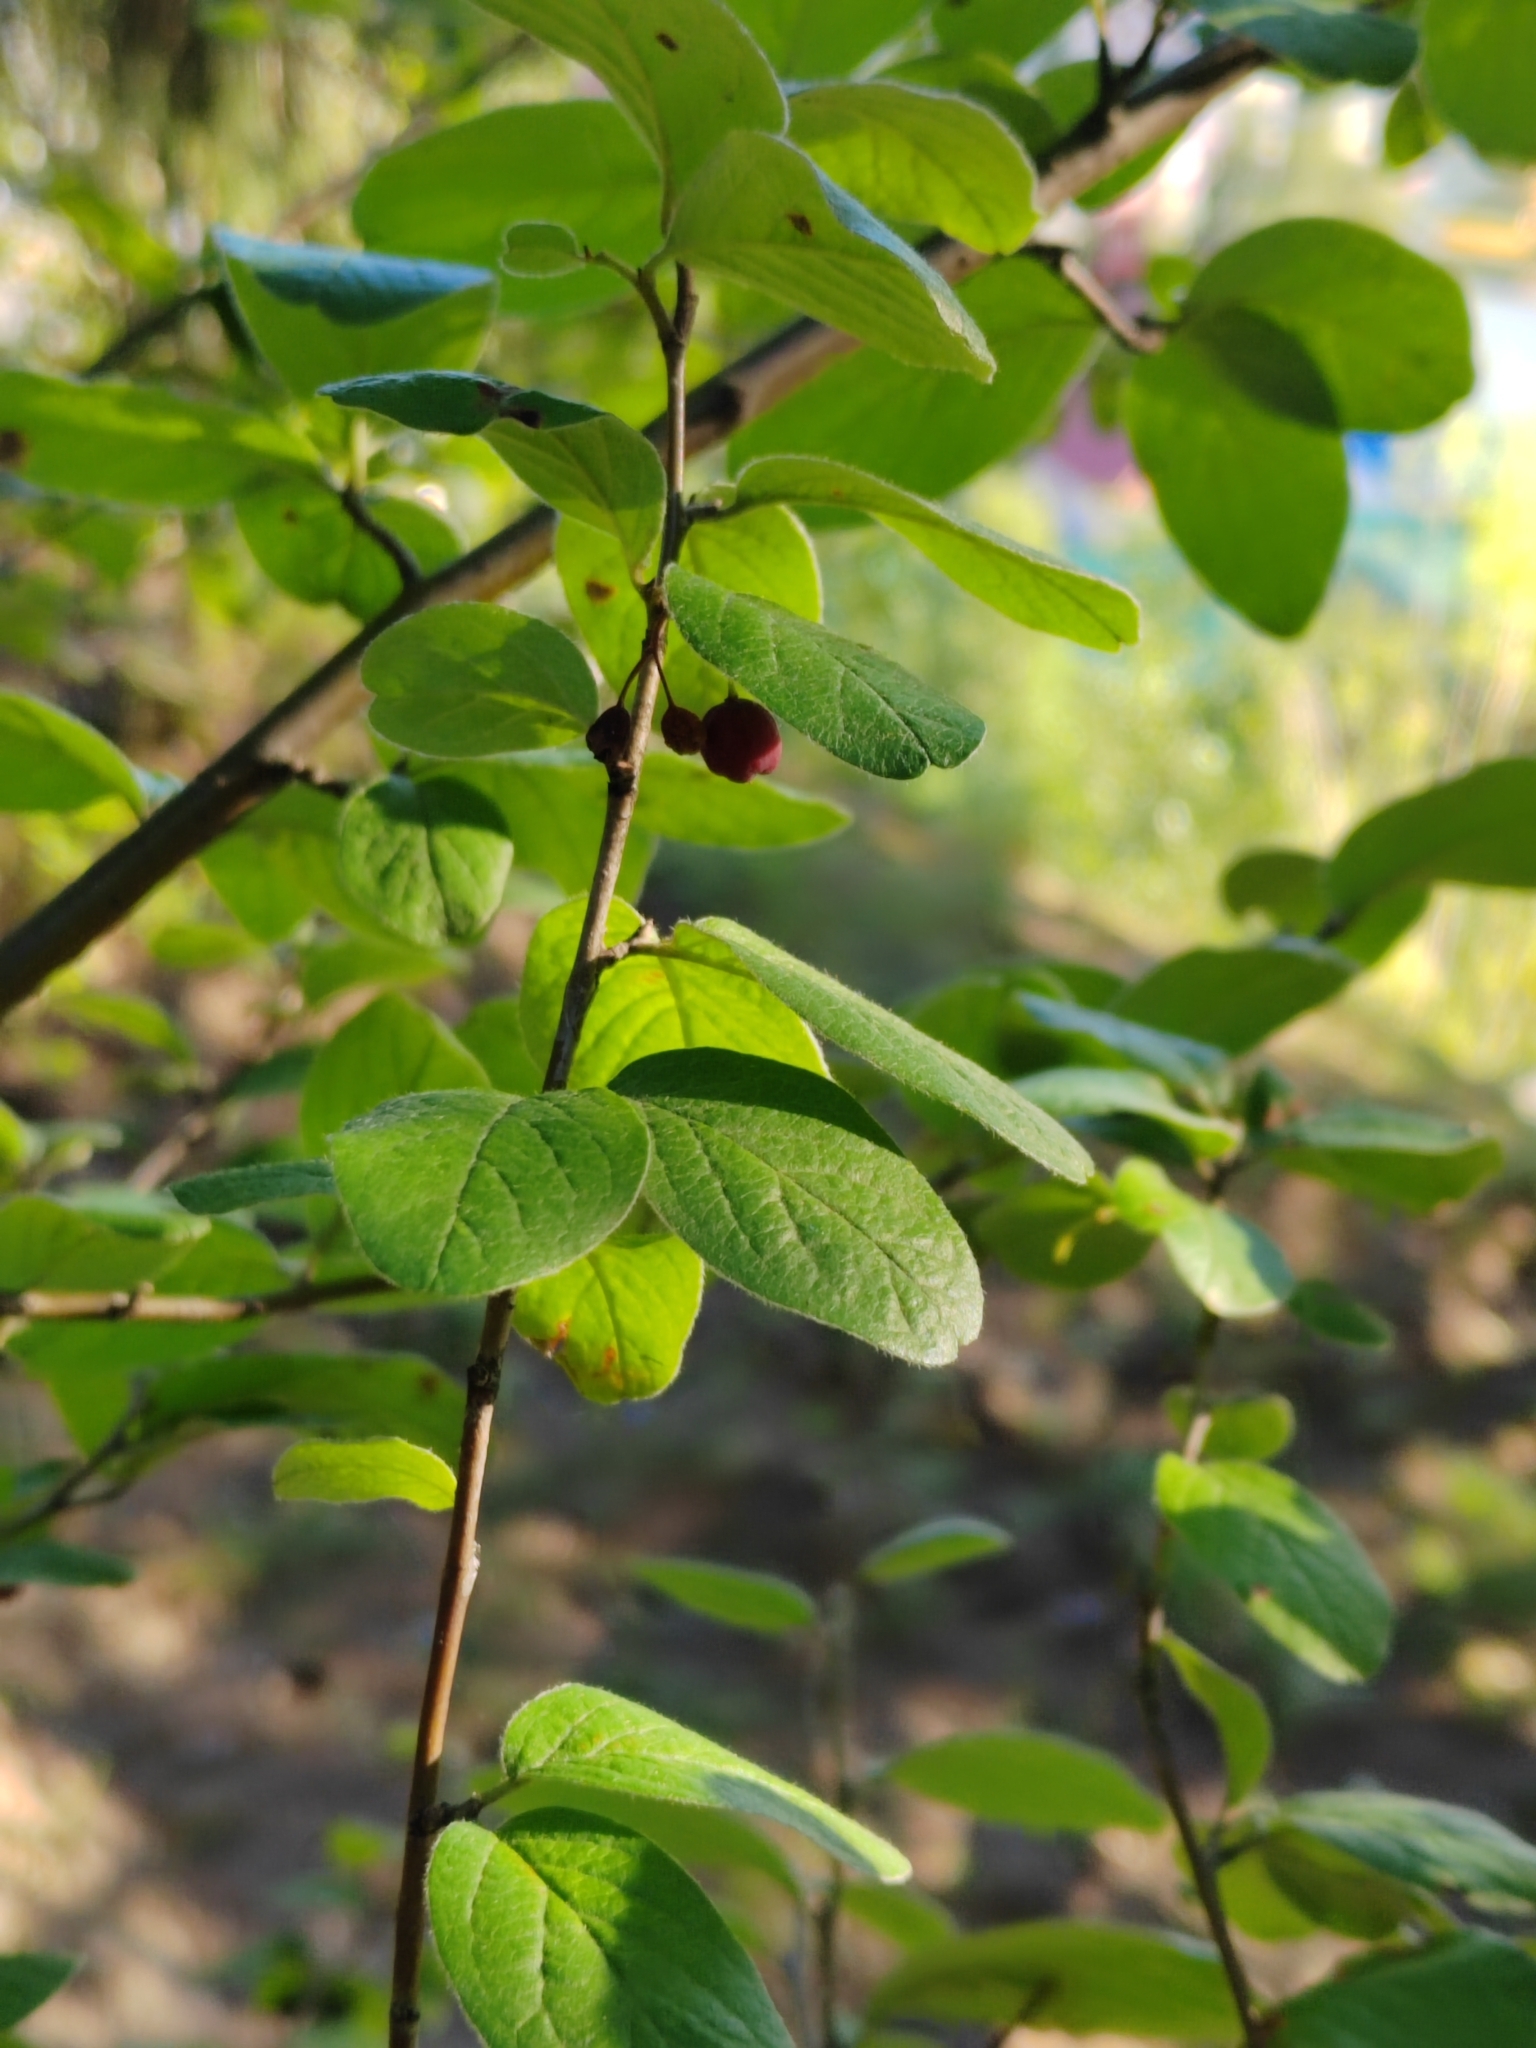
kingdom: Plantae
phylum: Tracheophyta
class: Magnoliopsida
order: Rosales
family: Rosaceae
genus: Cotoneaster
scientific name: Cotoneaster melanocarpus
